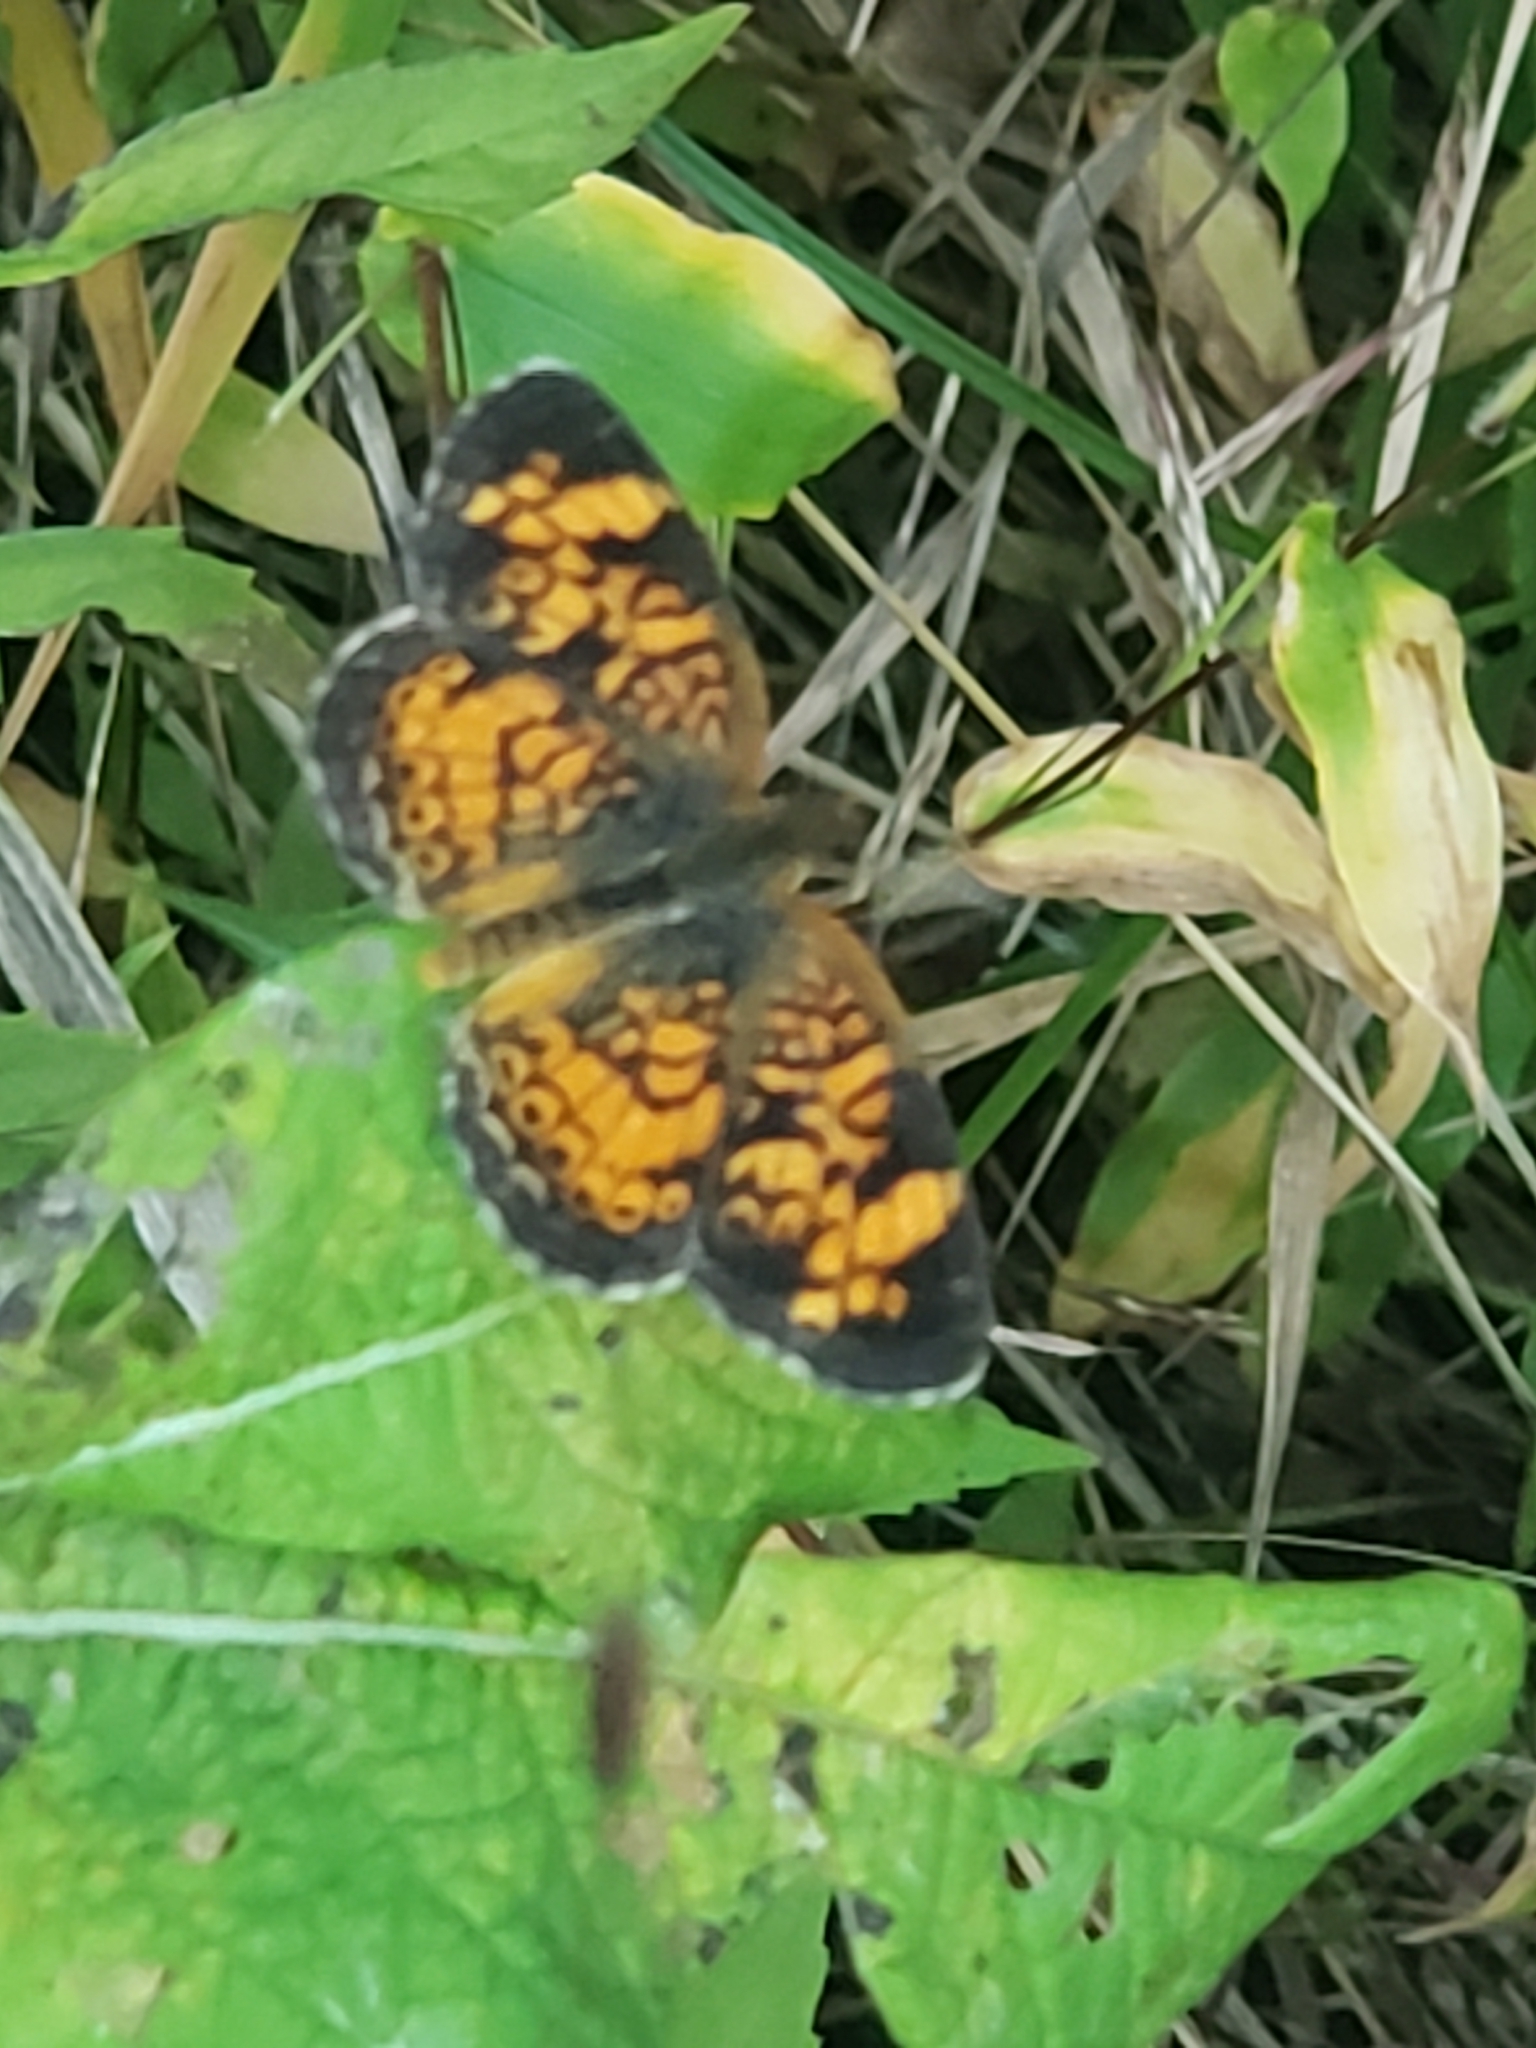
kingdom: Animalia
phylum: Arthropoda
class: Insecta
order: Lepidoptera
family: Nymphalidae
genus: Phyciodes
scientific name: Phyciodes tharos
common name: Pearl crescent
